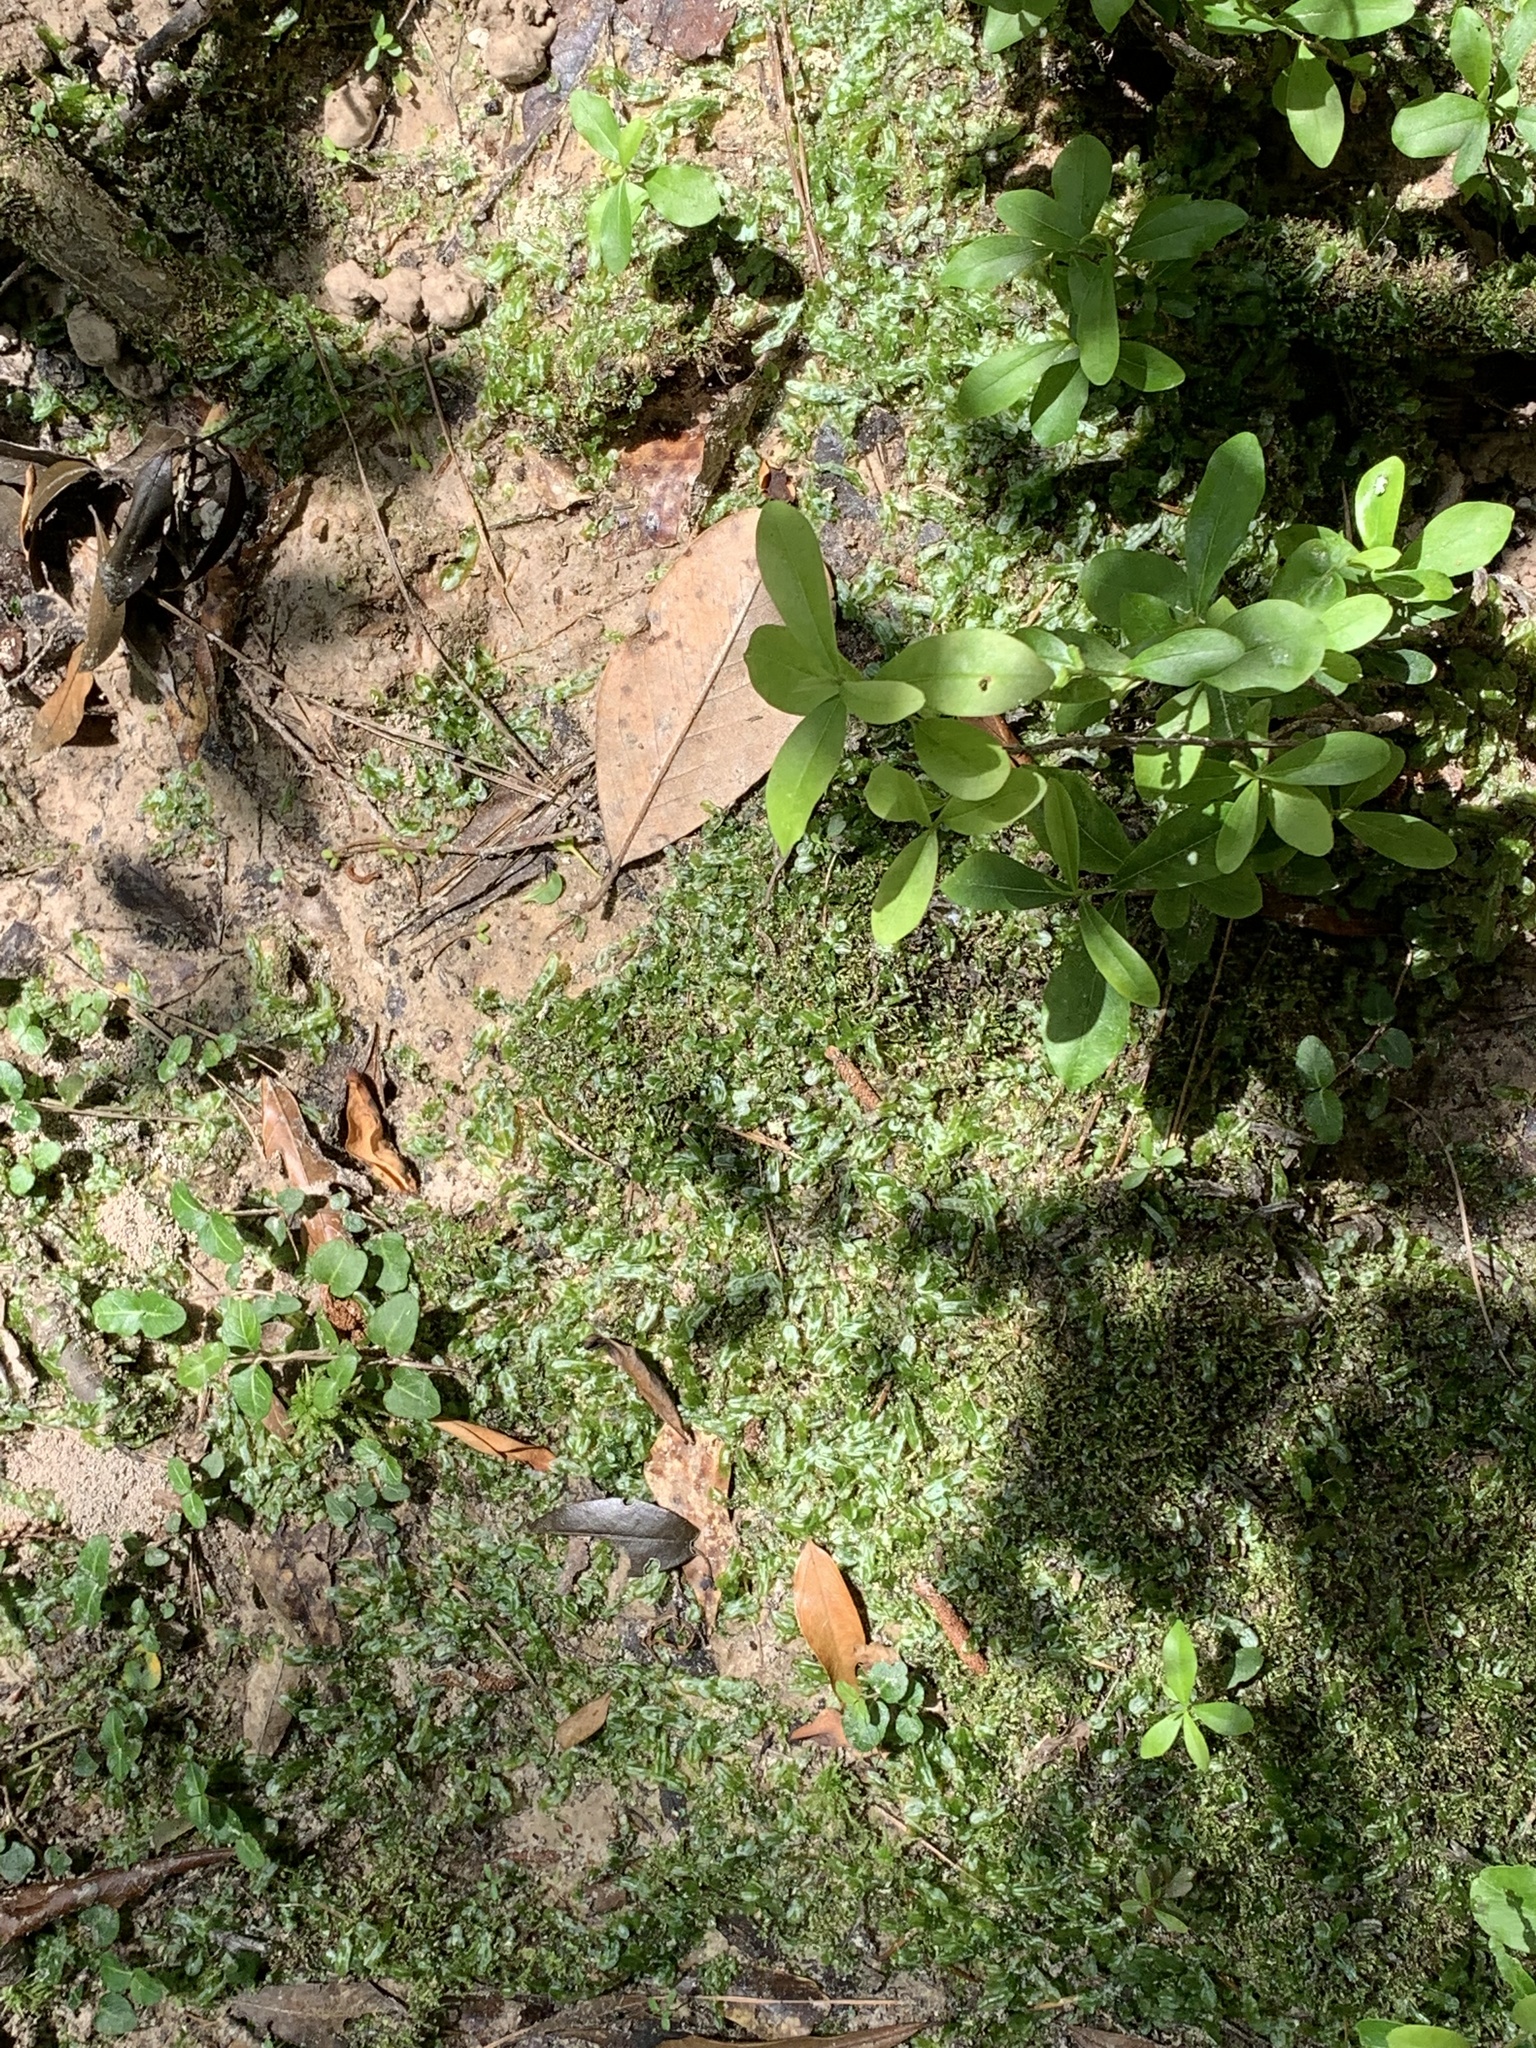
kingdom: Plantae
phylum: Marchantiophyta
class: Jungermanniopsida
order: Pallaviciniales
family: Pallaviciniaceae
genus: Pallavicinia
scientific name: Pallavicinia lyellii
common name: Veilwort
